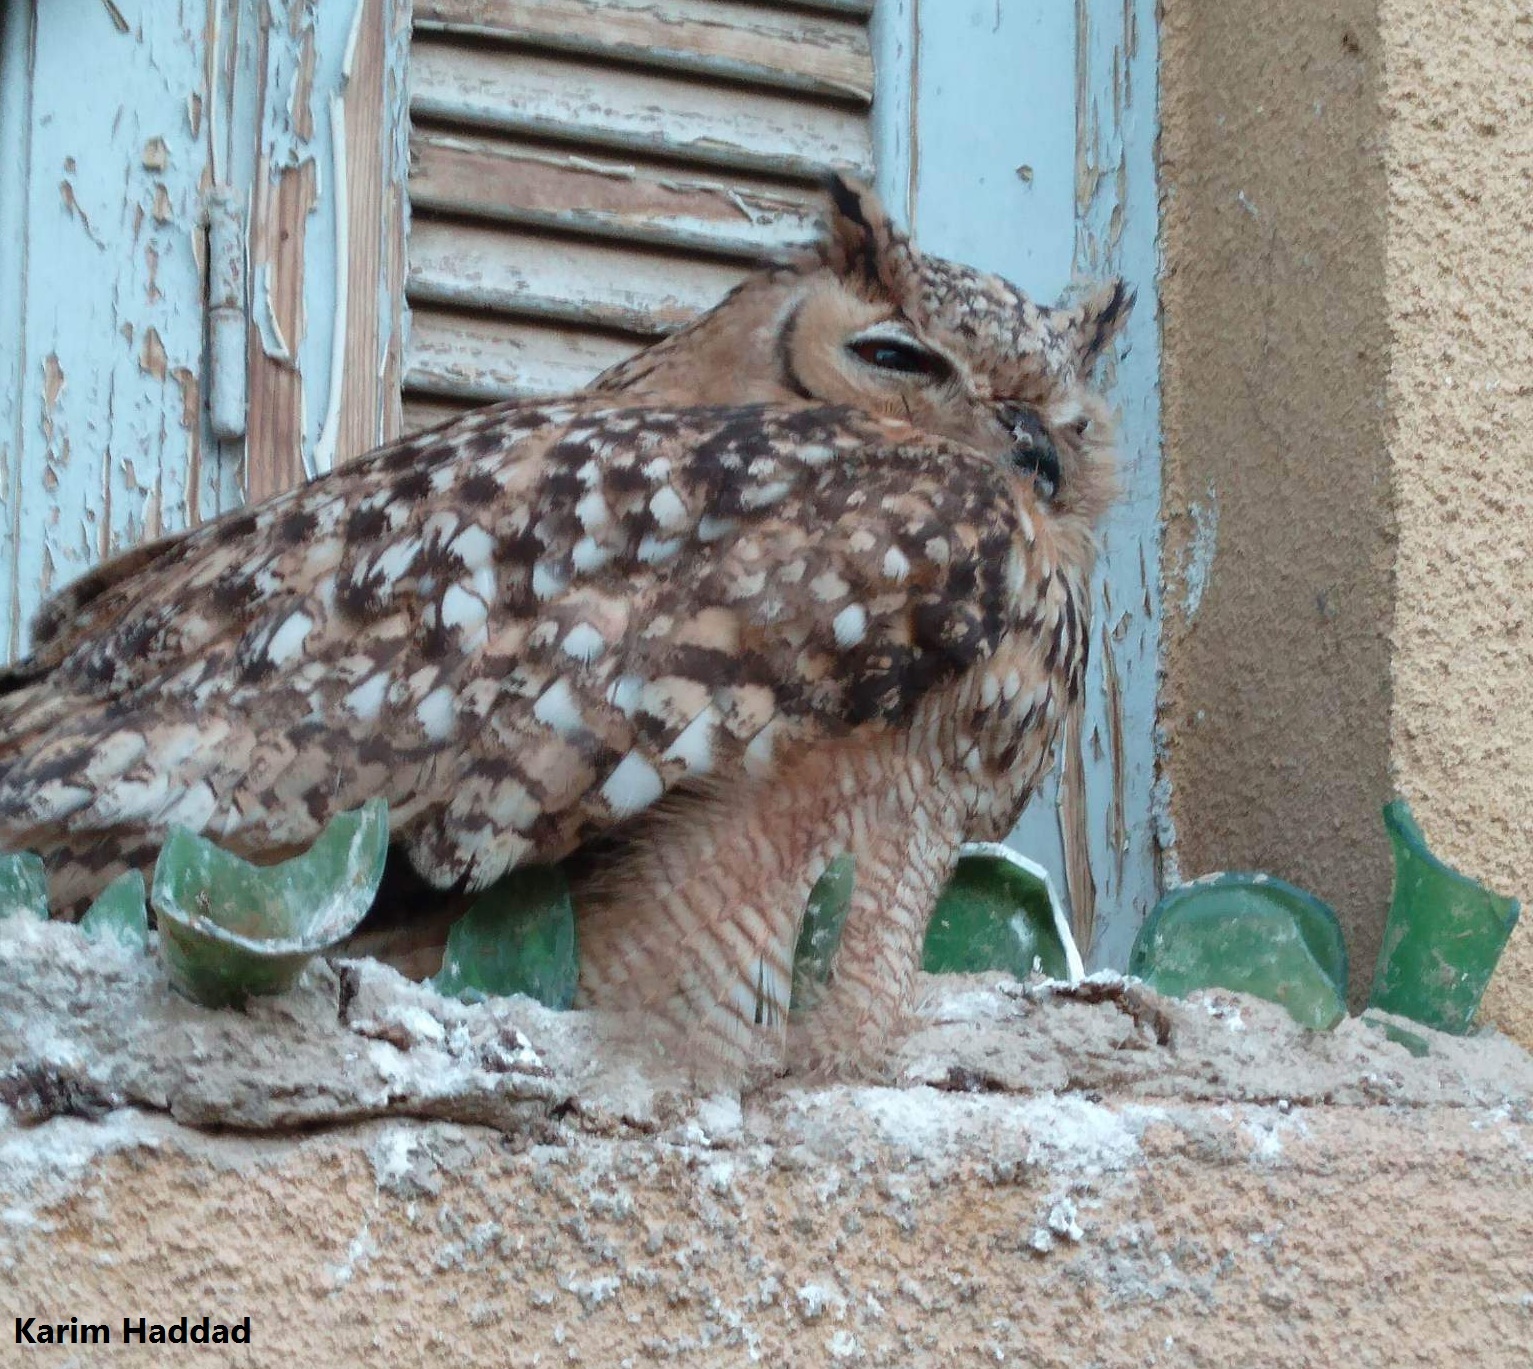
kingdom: Animalia
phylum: Chordata
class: Aves
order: Strigiformes
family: Strigidae
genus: Bubo
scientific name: Bubo ascalaphus
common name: Pharaoh eagle-owl
